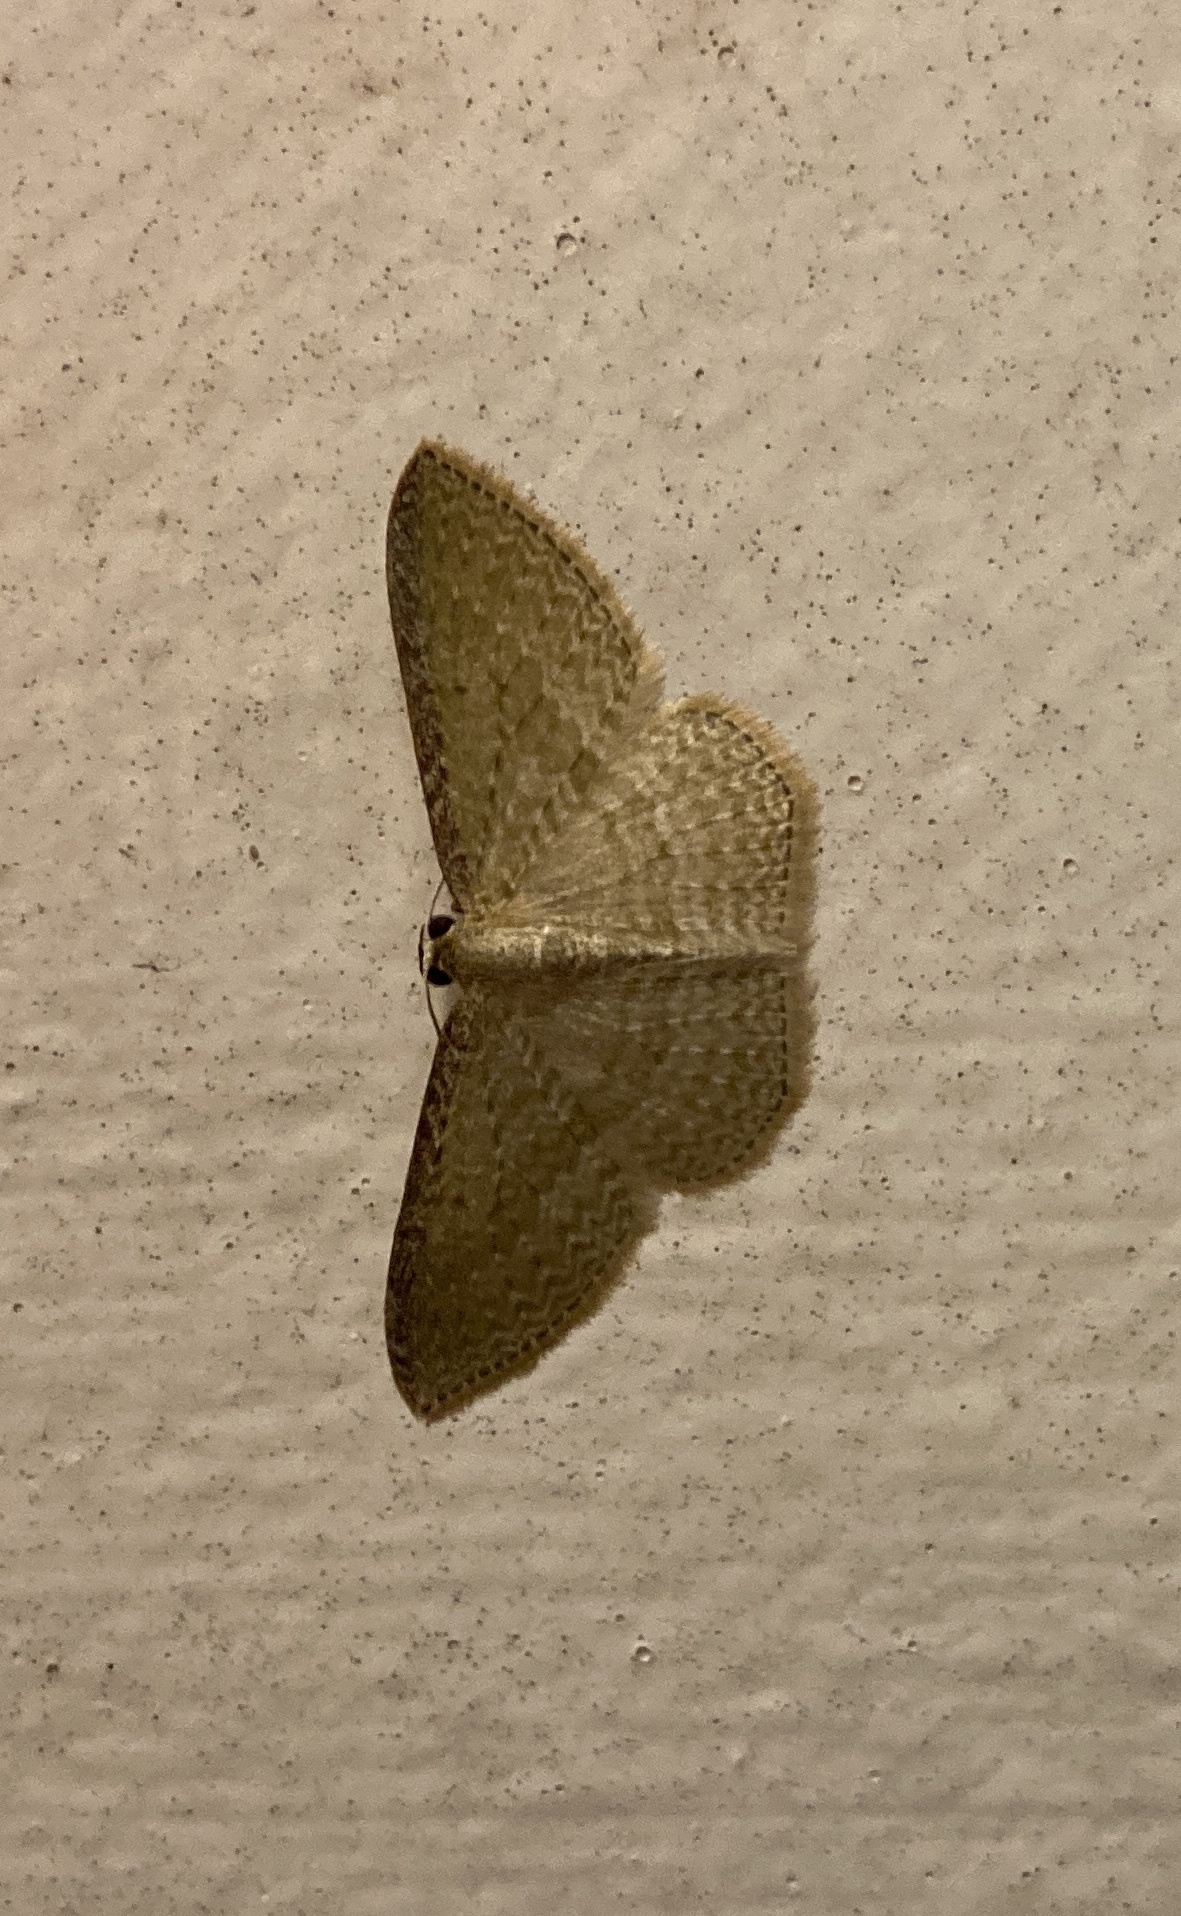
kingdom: Animalia
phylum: Arthropoda
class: Insecta
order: Lepidoptera
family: Geometridae
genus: Poecilasthena
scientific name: Poecilasthena pulchraria
